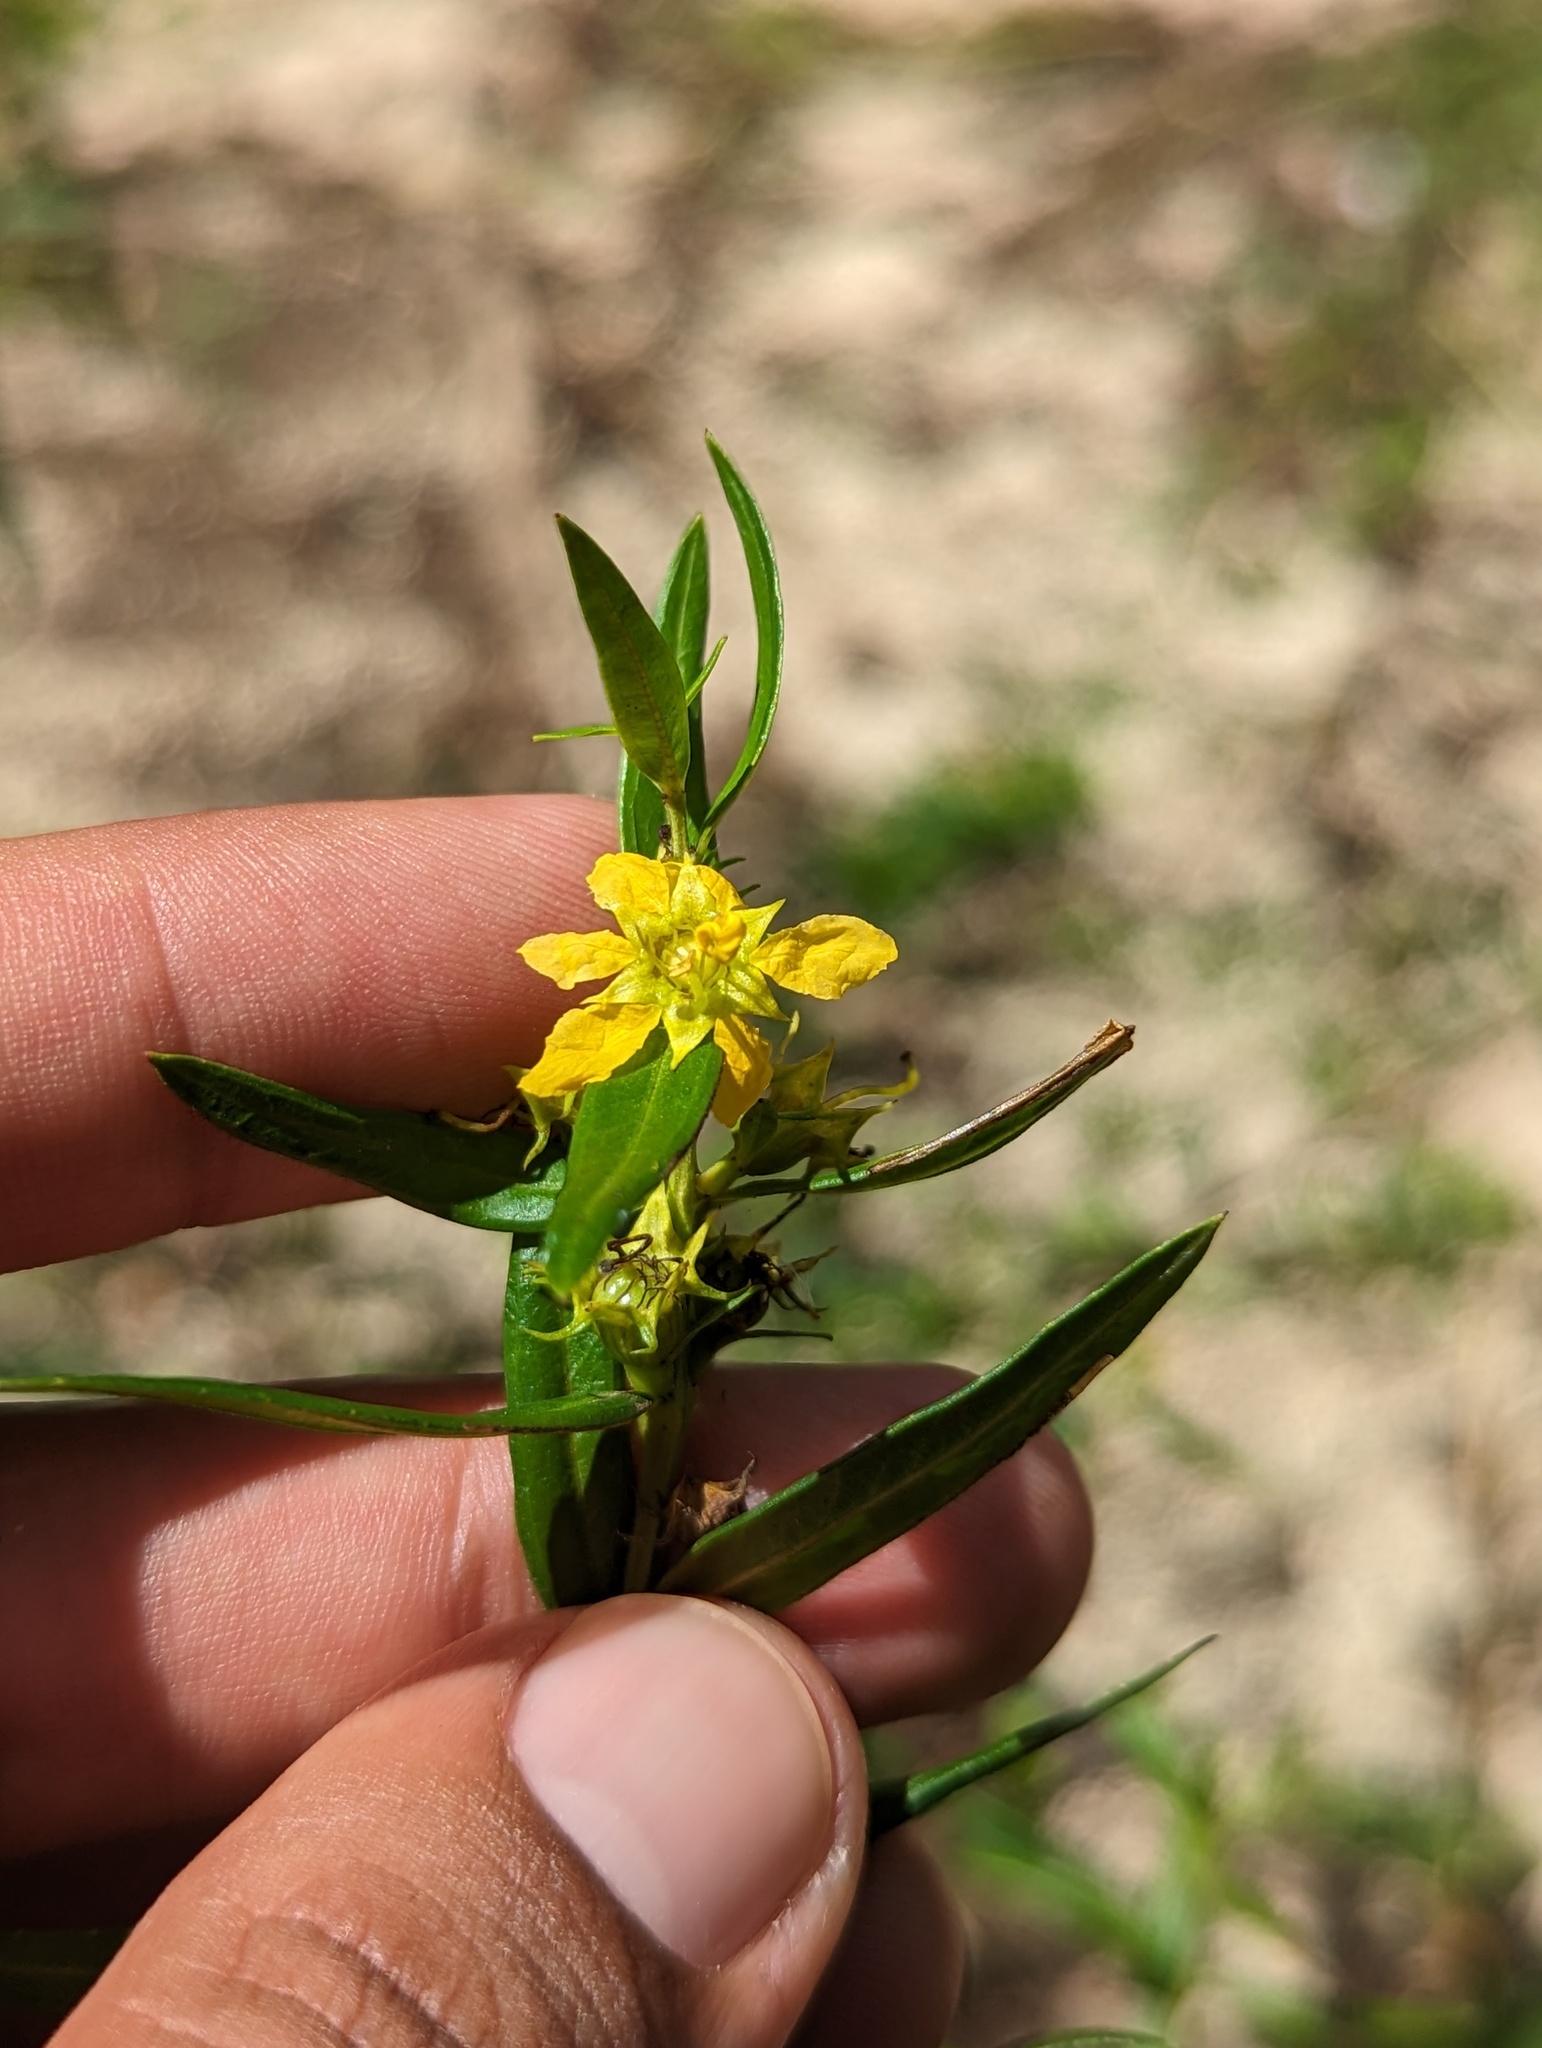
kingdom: Plantae
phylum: Tracheophyta
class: Magnoliopsida
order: Myrtales
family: Lythraceae
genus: Heimia
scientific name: Heimia salicifolia
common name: Willow-leaf heimia
